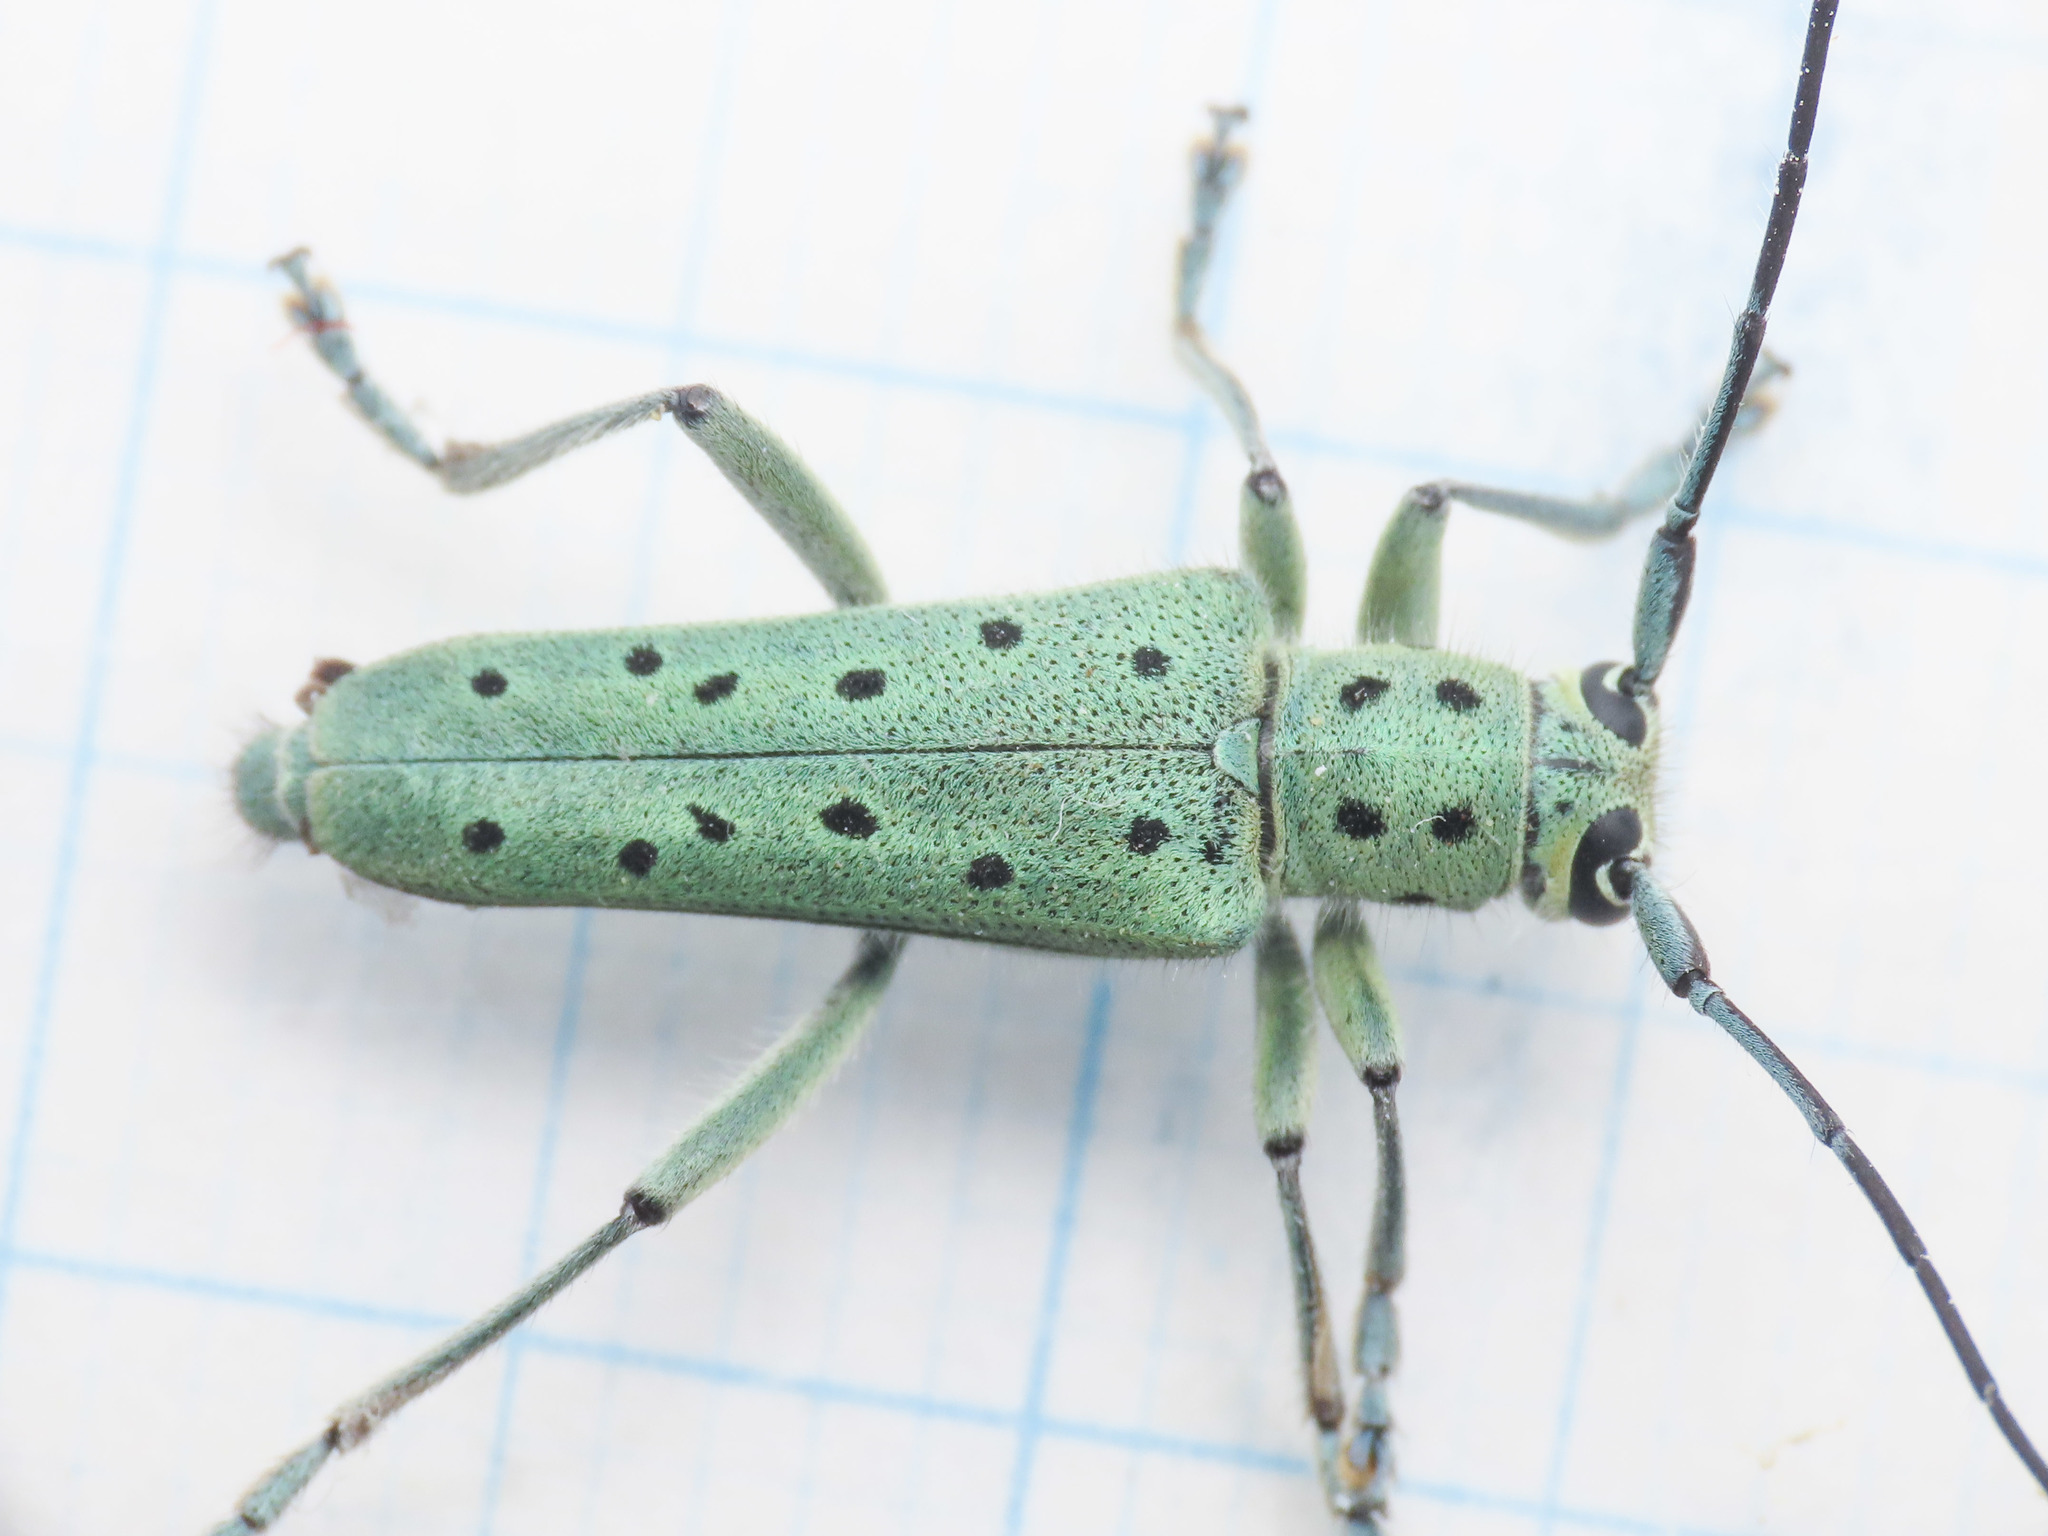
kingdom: Animalia
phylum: Arthropoda
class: Insecta
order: Coleoptera
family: Cerambycidae
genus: Saperda
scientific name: Saperda punctata
